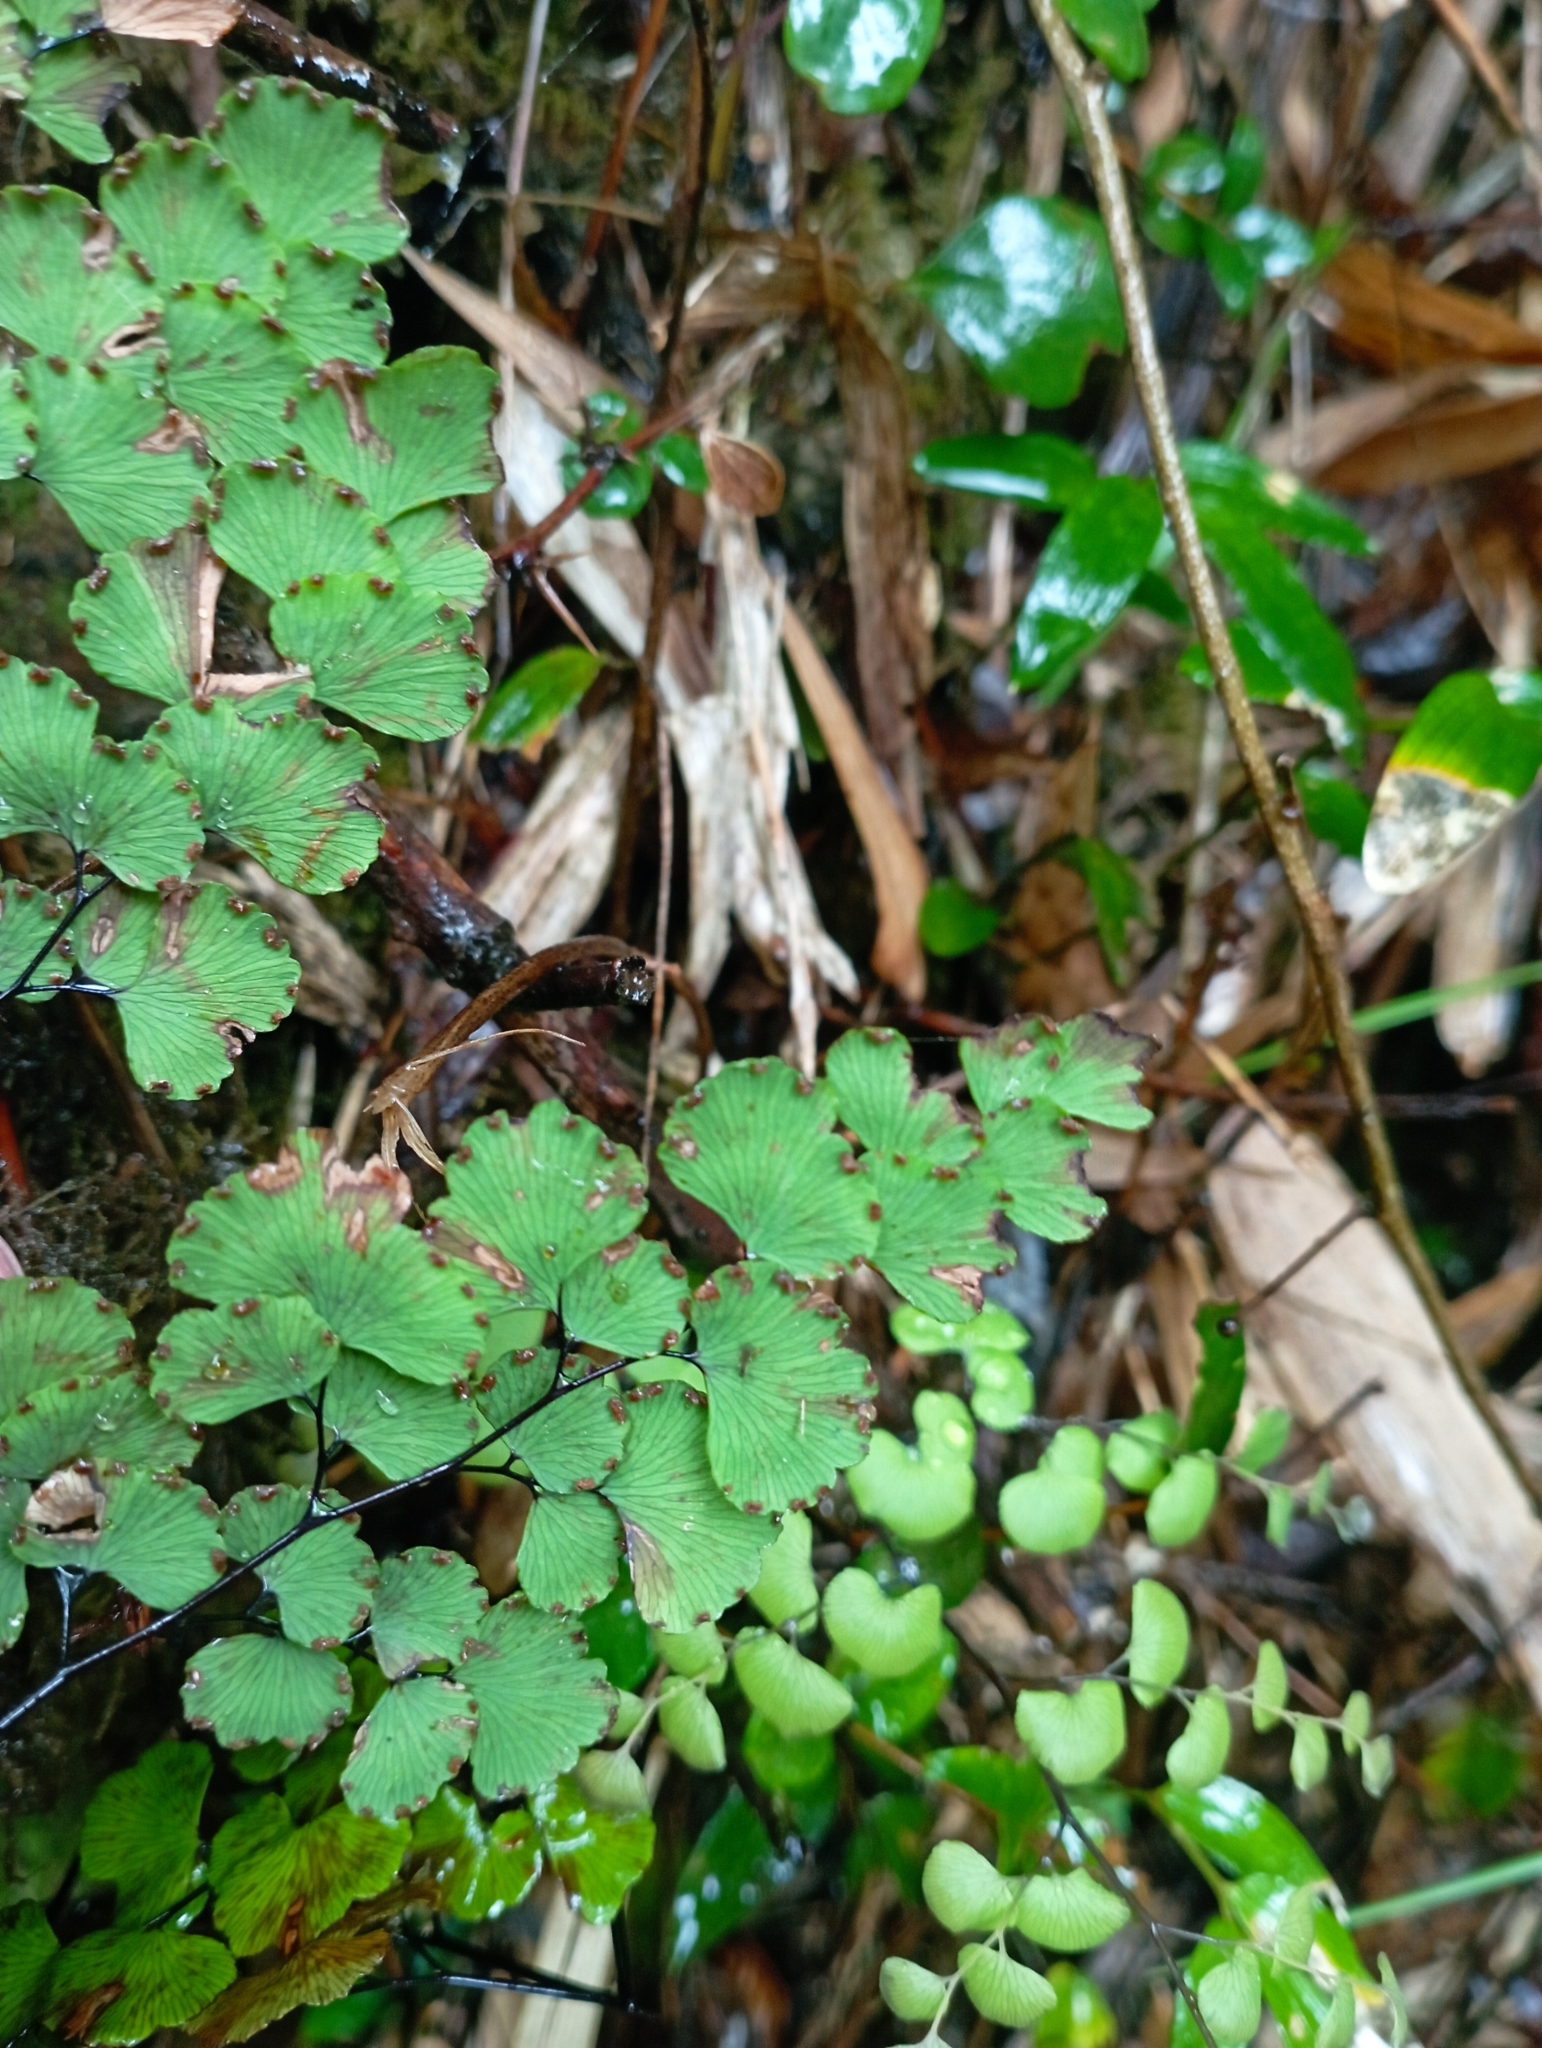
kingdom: Plantae
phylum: Tracheophyta
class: Polypodiopsida
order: Polypodiales
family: Pteridaceae
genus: Adiantum
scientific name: Adiantum chilense
